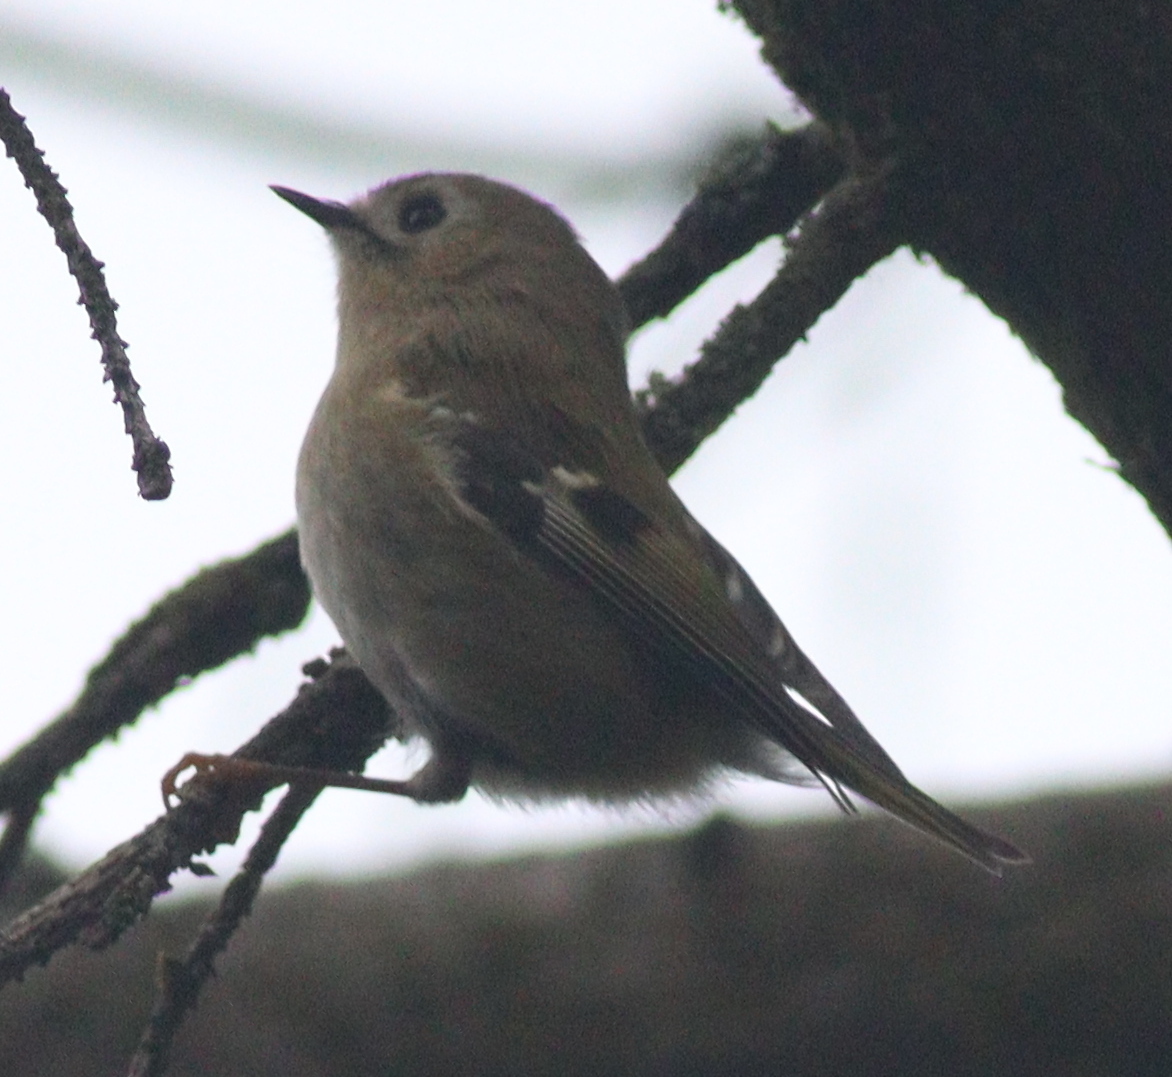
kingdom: Animalia
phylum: Chordata
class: Aves
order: Passeriformes
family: Regulidae
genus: Regulus
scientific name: Regulus regulus
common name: Goldcrest
